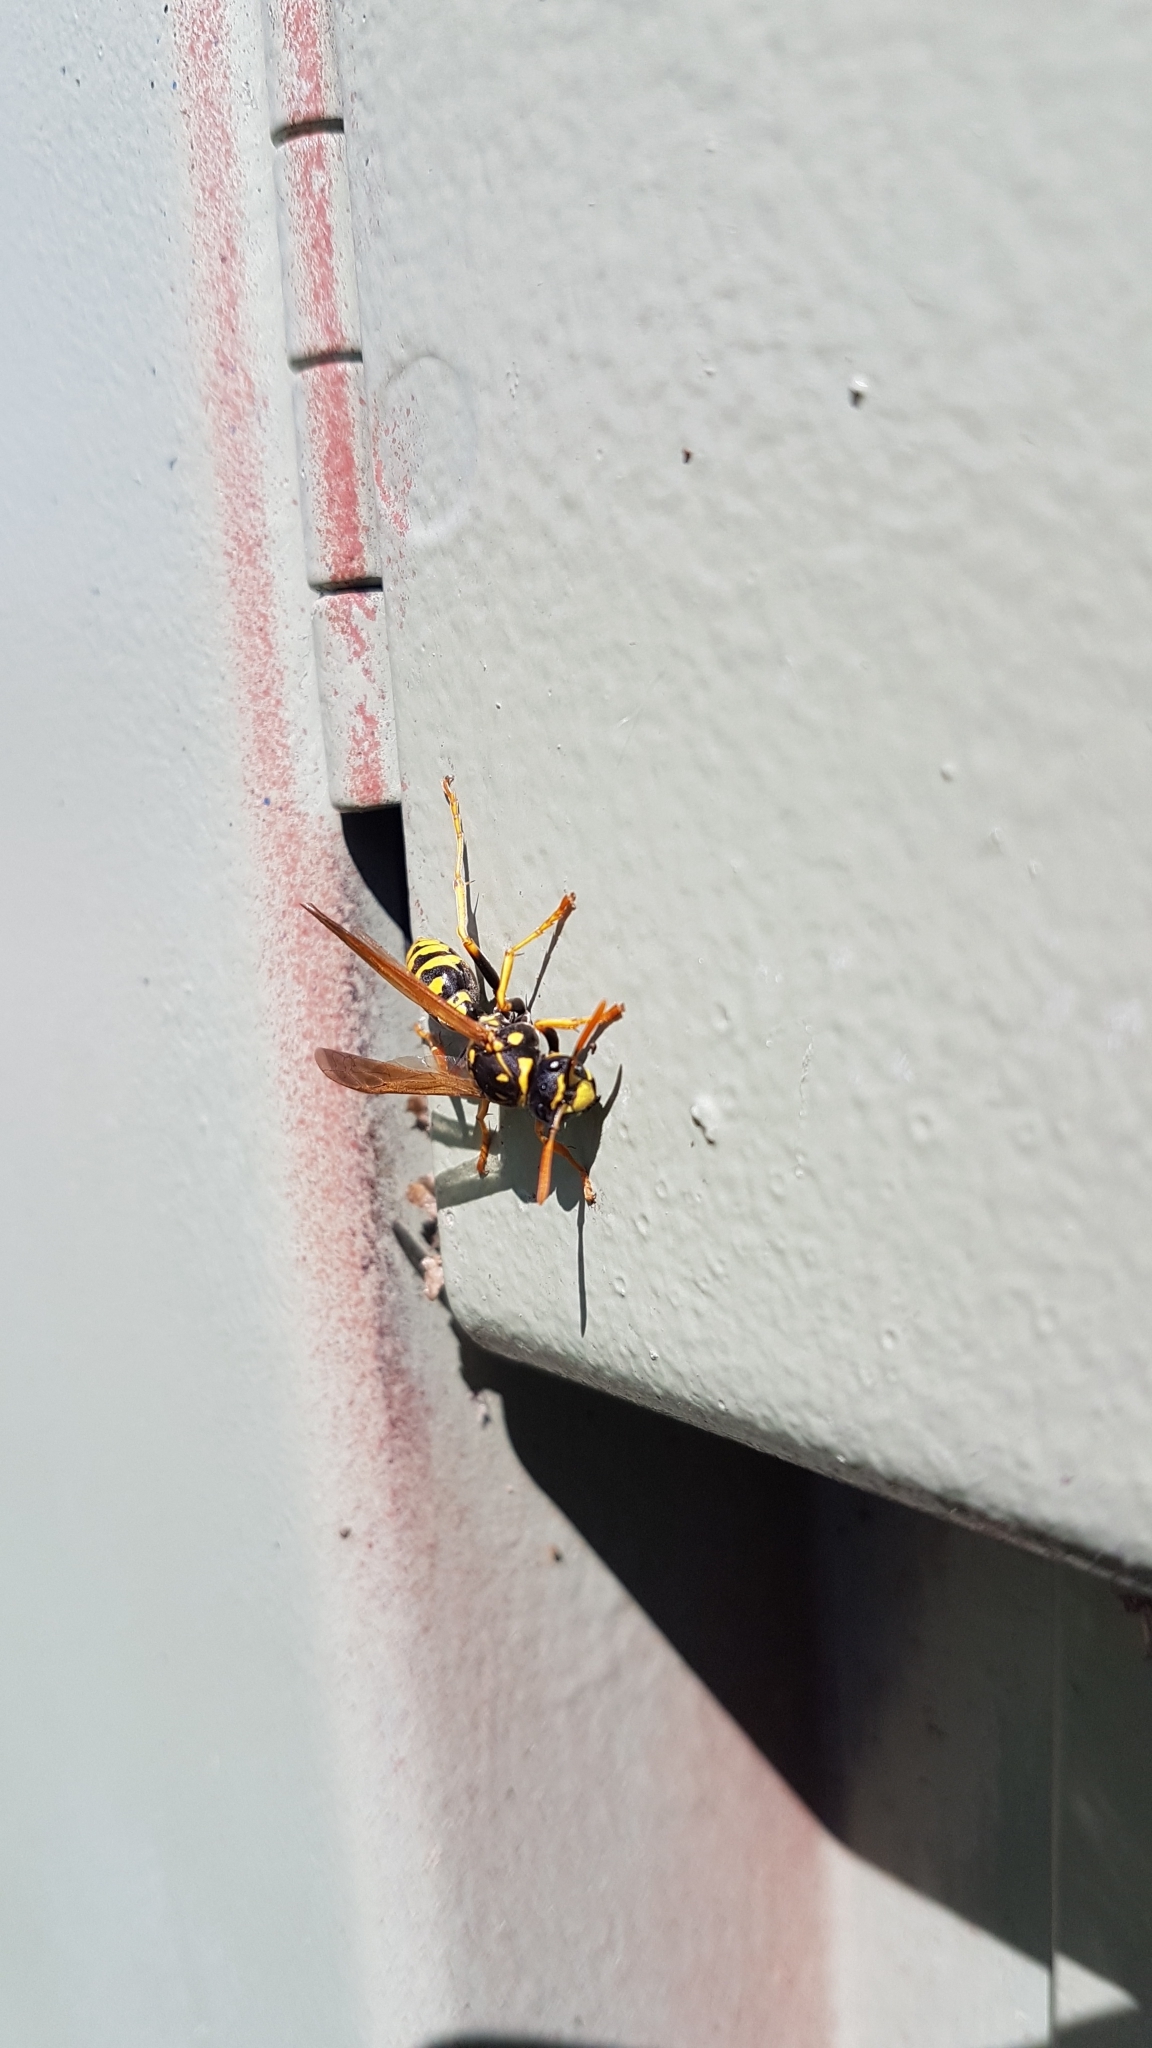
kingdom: Animalia
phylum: Arthropoda
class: Insecta
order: Hymenoptera
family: Eumenidae
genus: Polistes
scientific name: Polistes dominula
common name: Paper wasp
